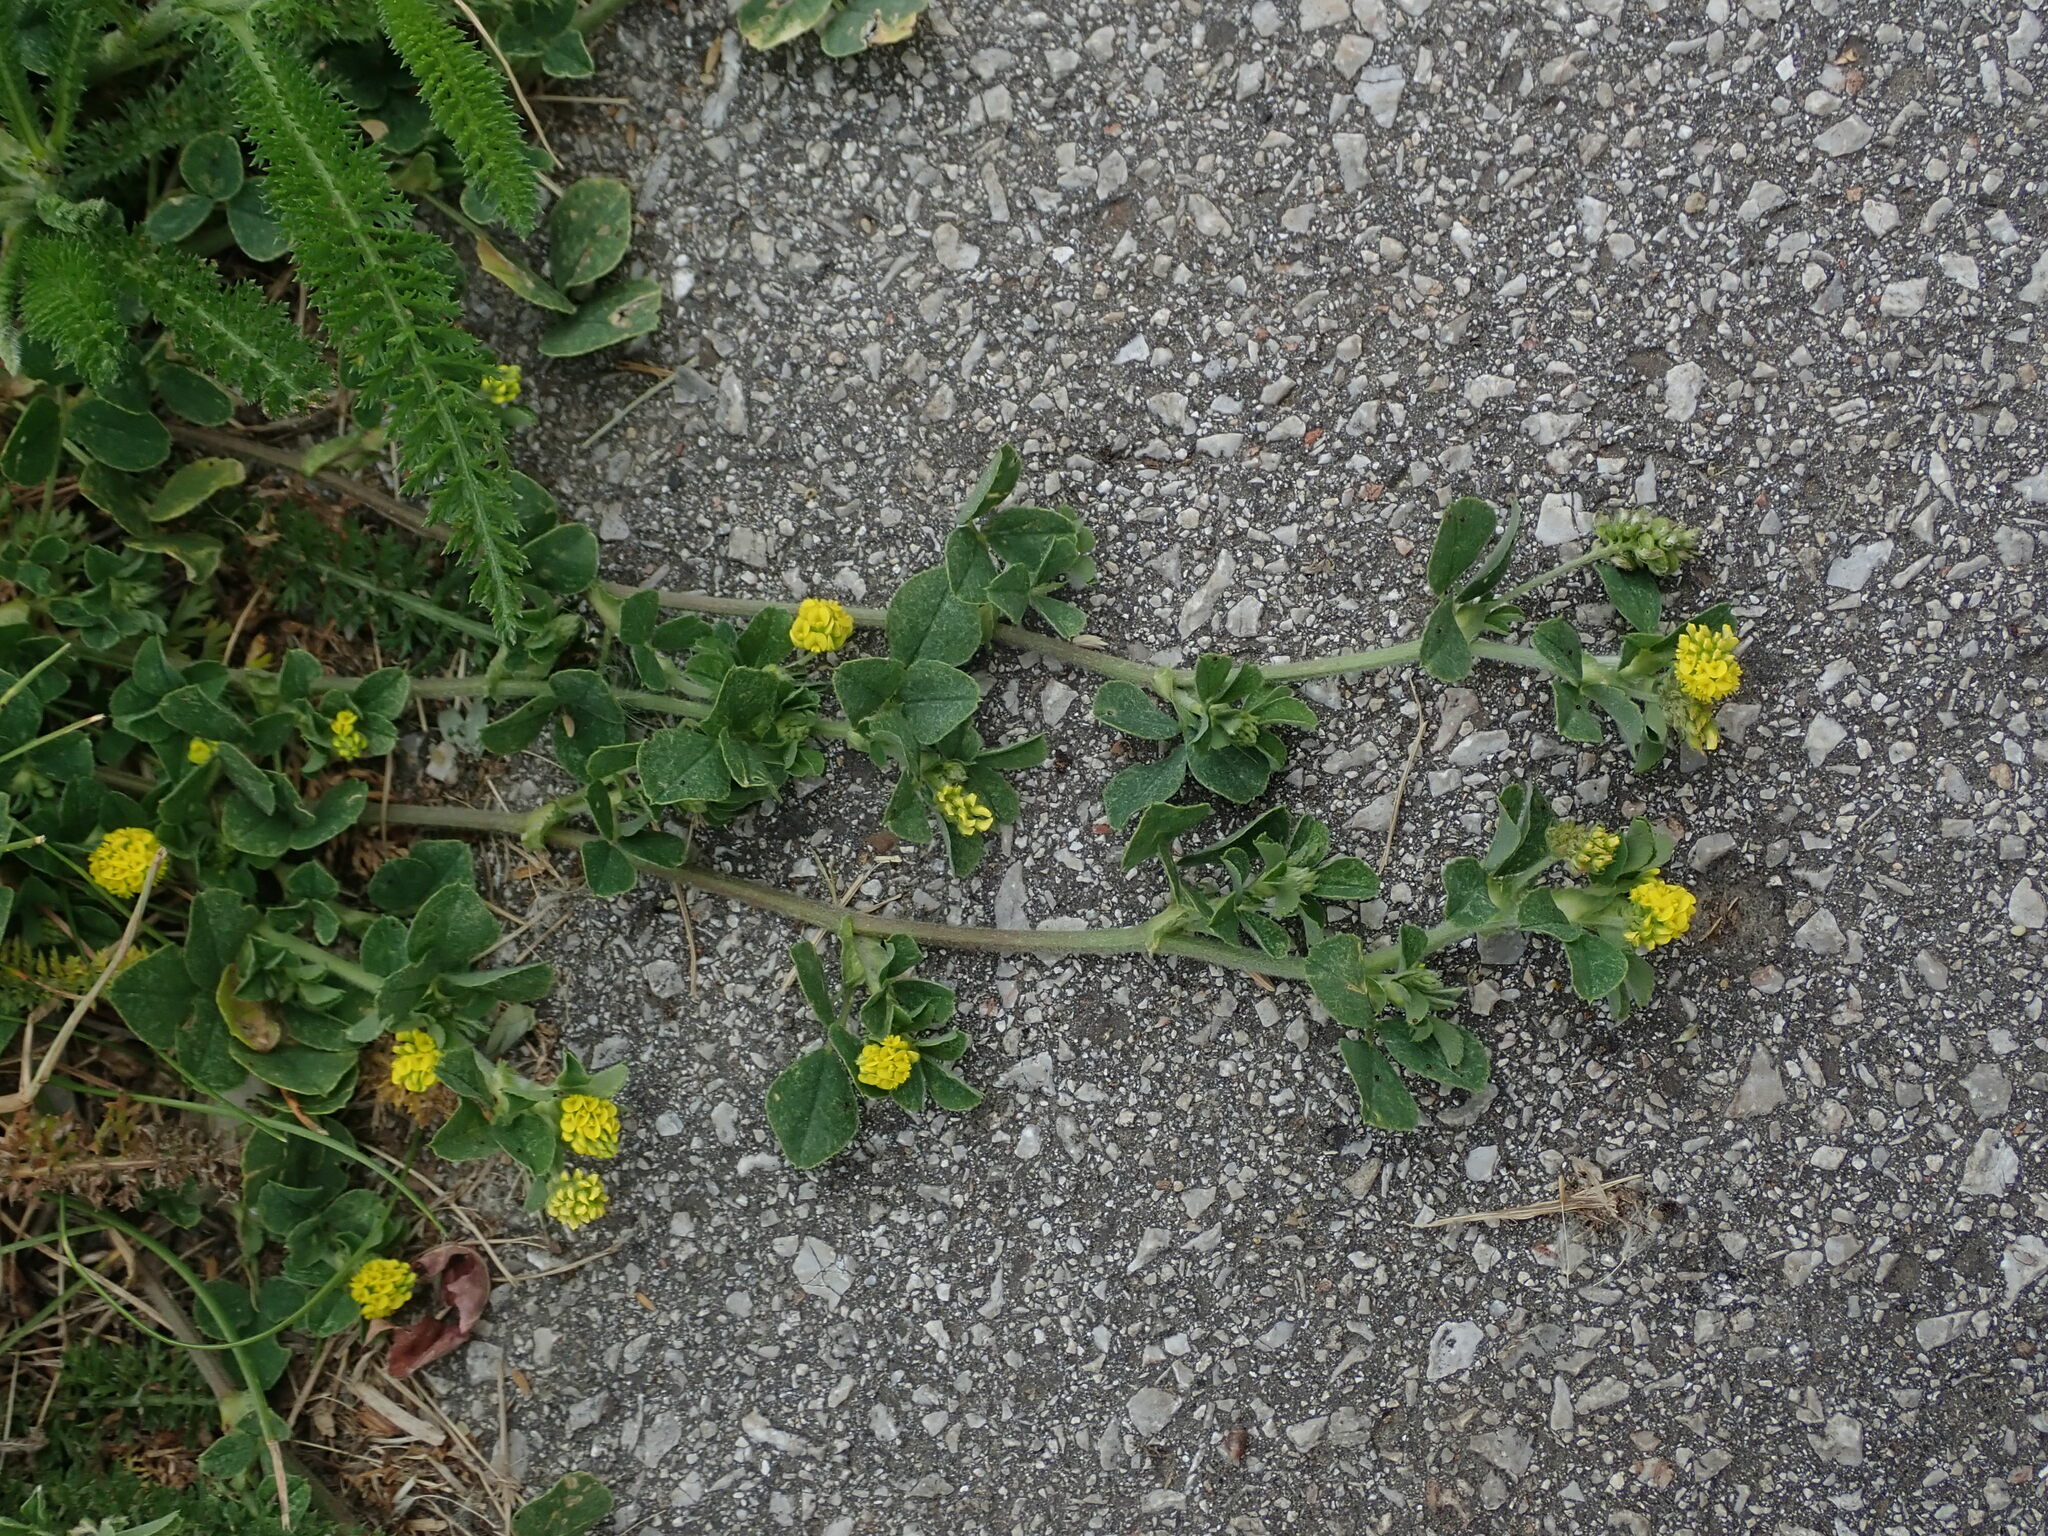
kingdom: Plantae
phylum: Tracheophyta
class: Magnoliopsida
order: Fabales
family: Fabaceae
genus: Medicago
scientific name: Medicago lupulina
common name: Black medick
